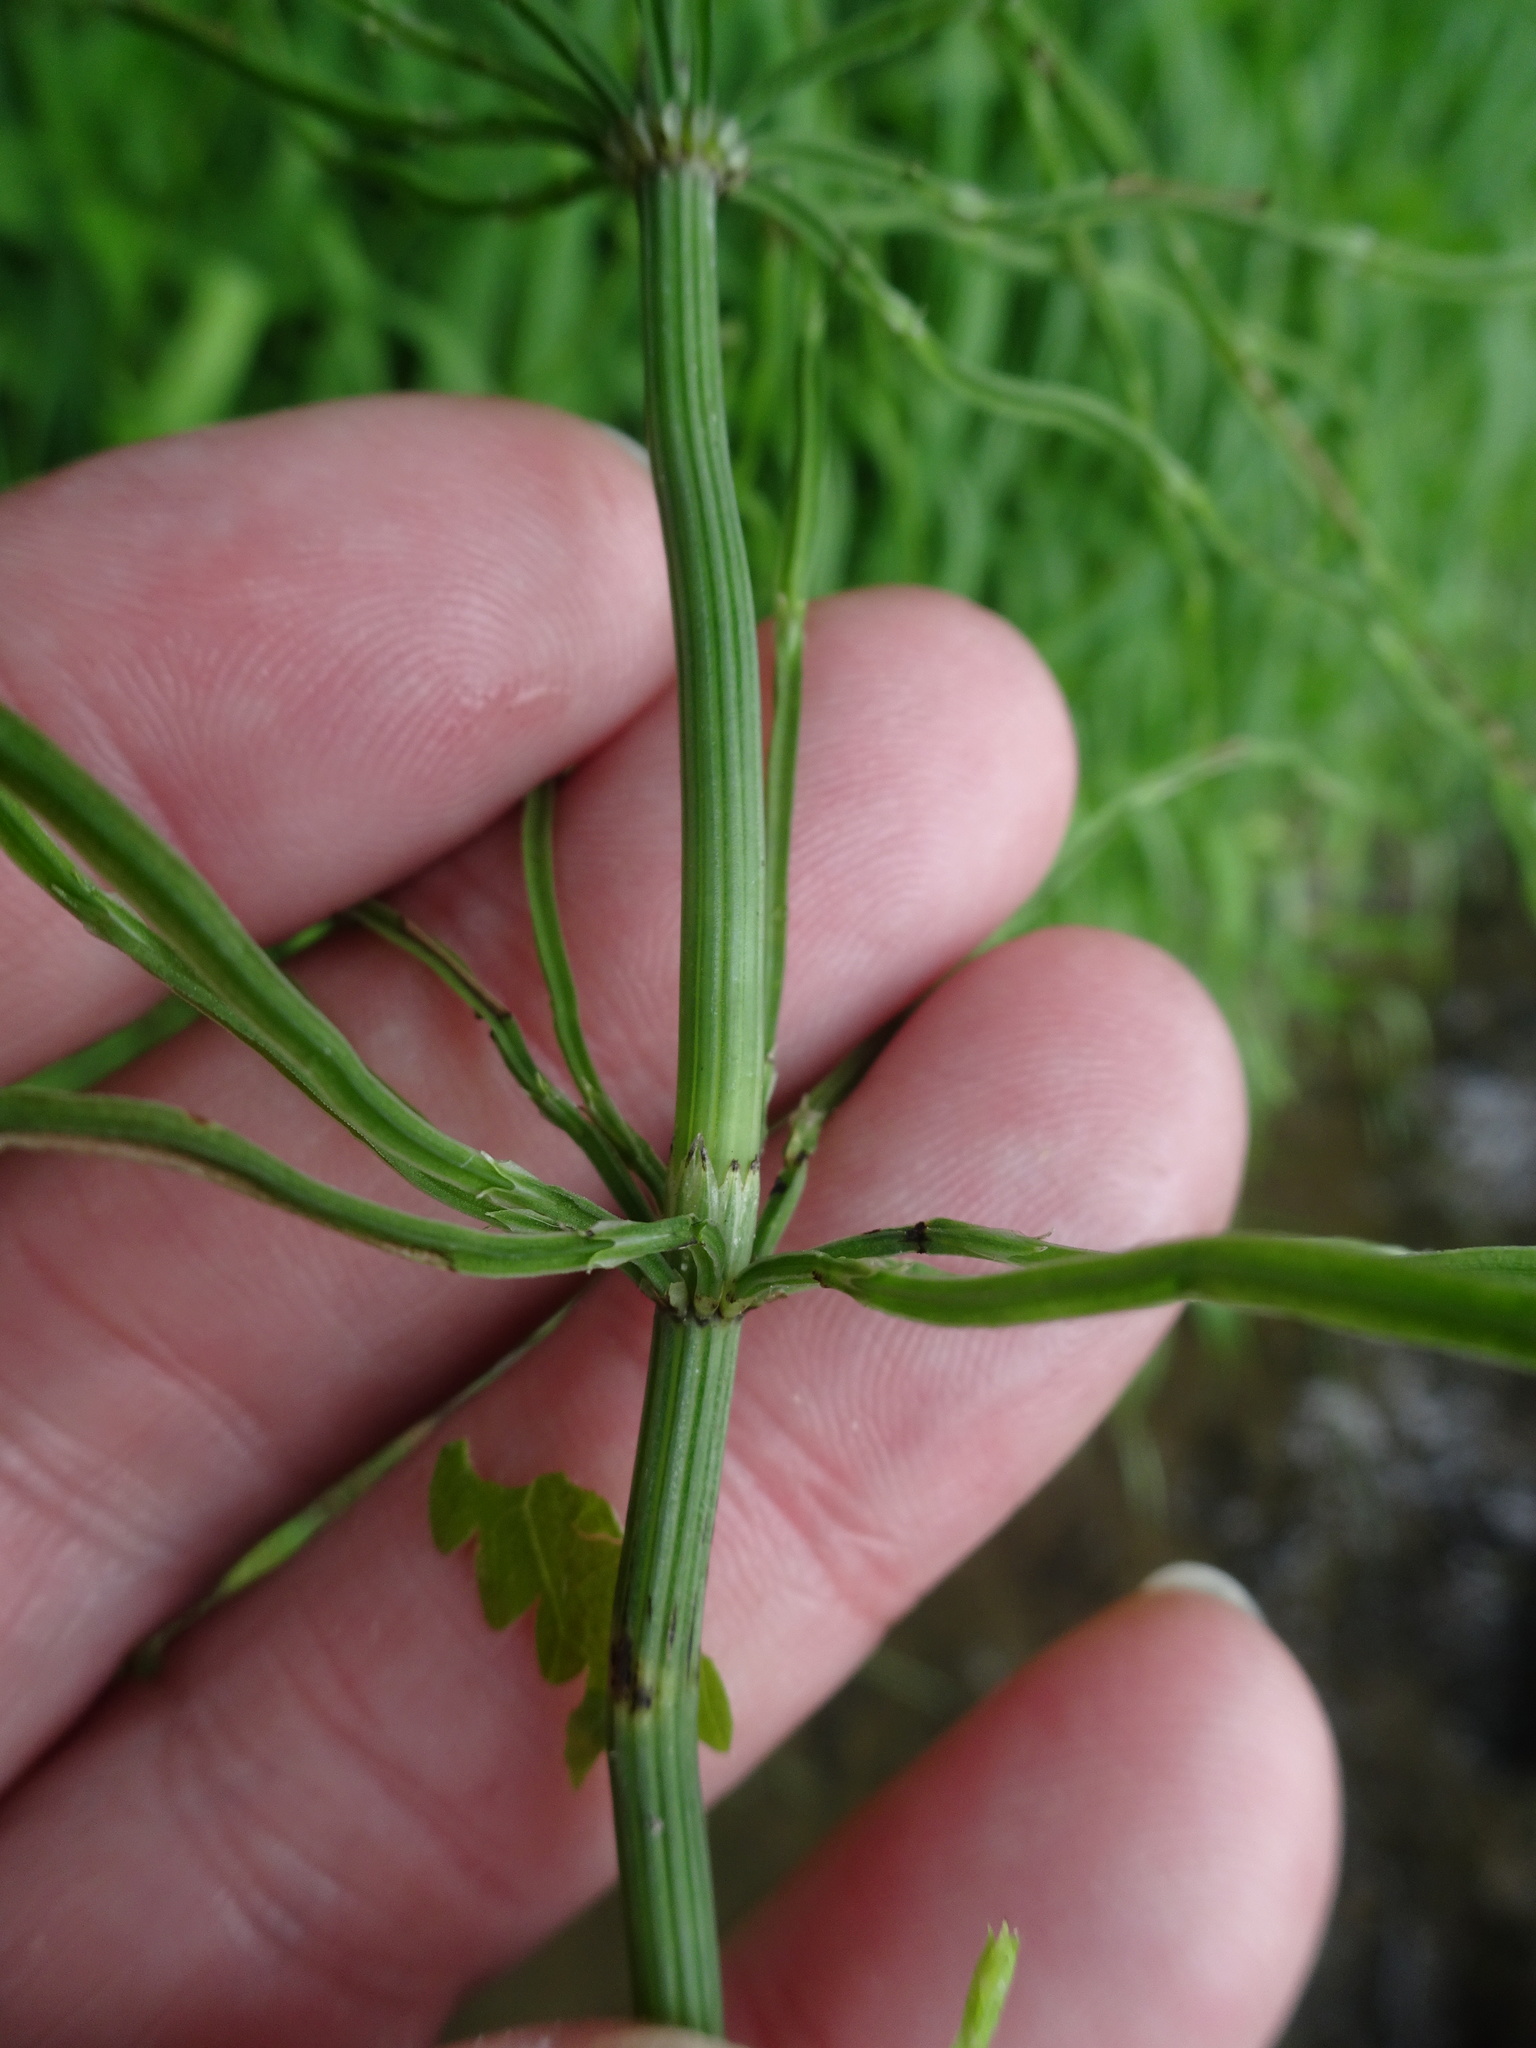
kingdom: Plantae
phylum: Tracheophyta
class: Polypodiopsida
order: Equisetales
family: Equisetaceae
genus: Equisetum
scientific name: Equisetum arvense
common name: Field horsetail
